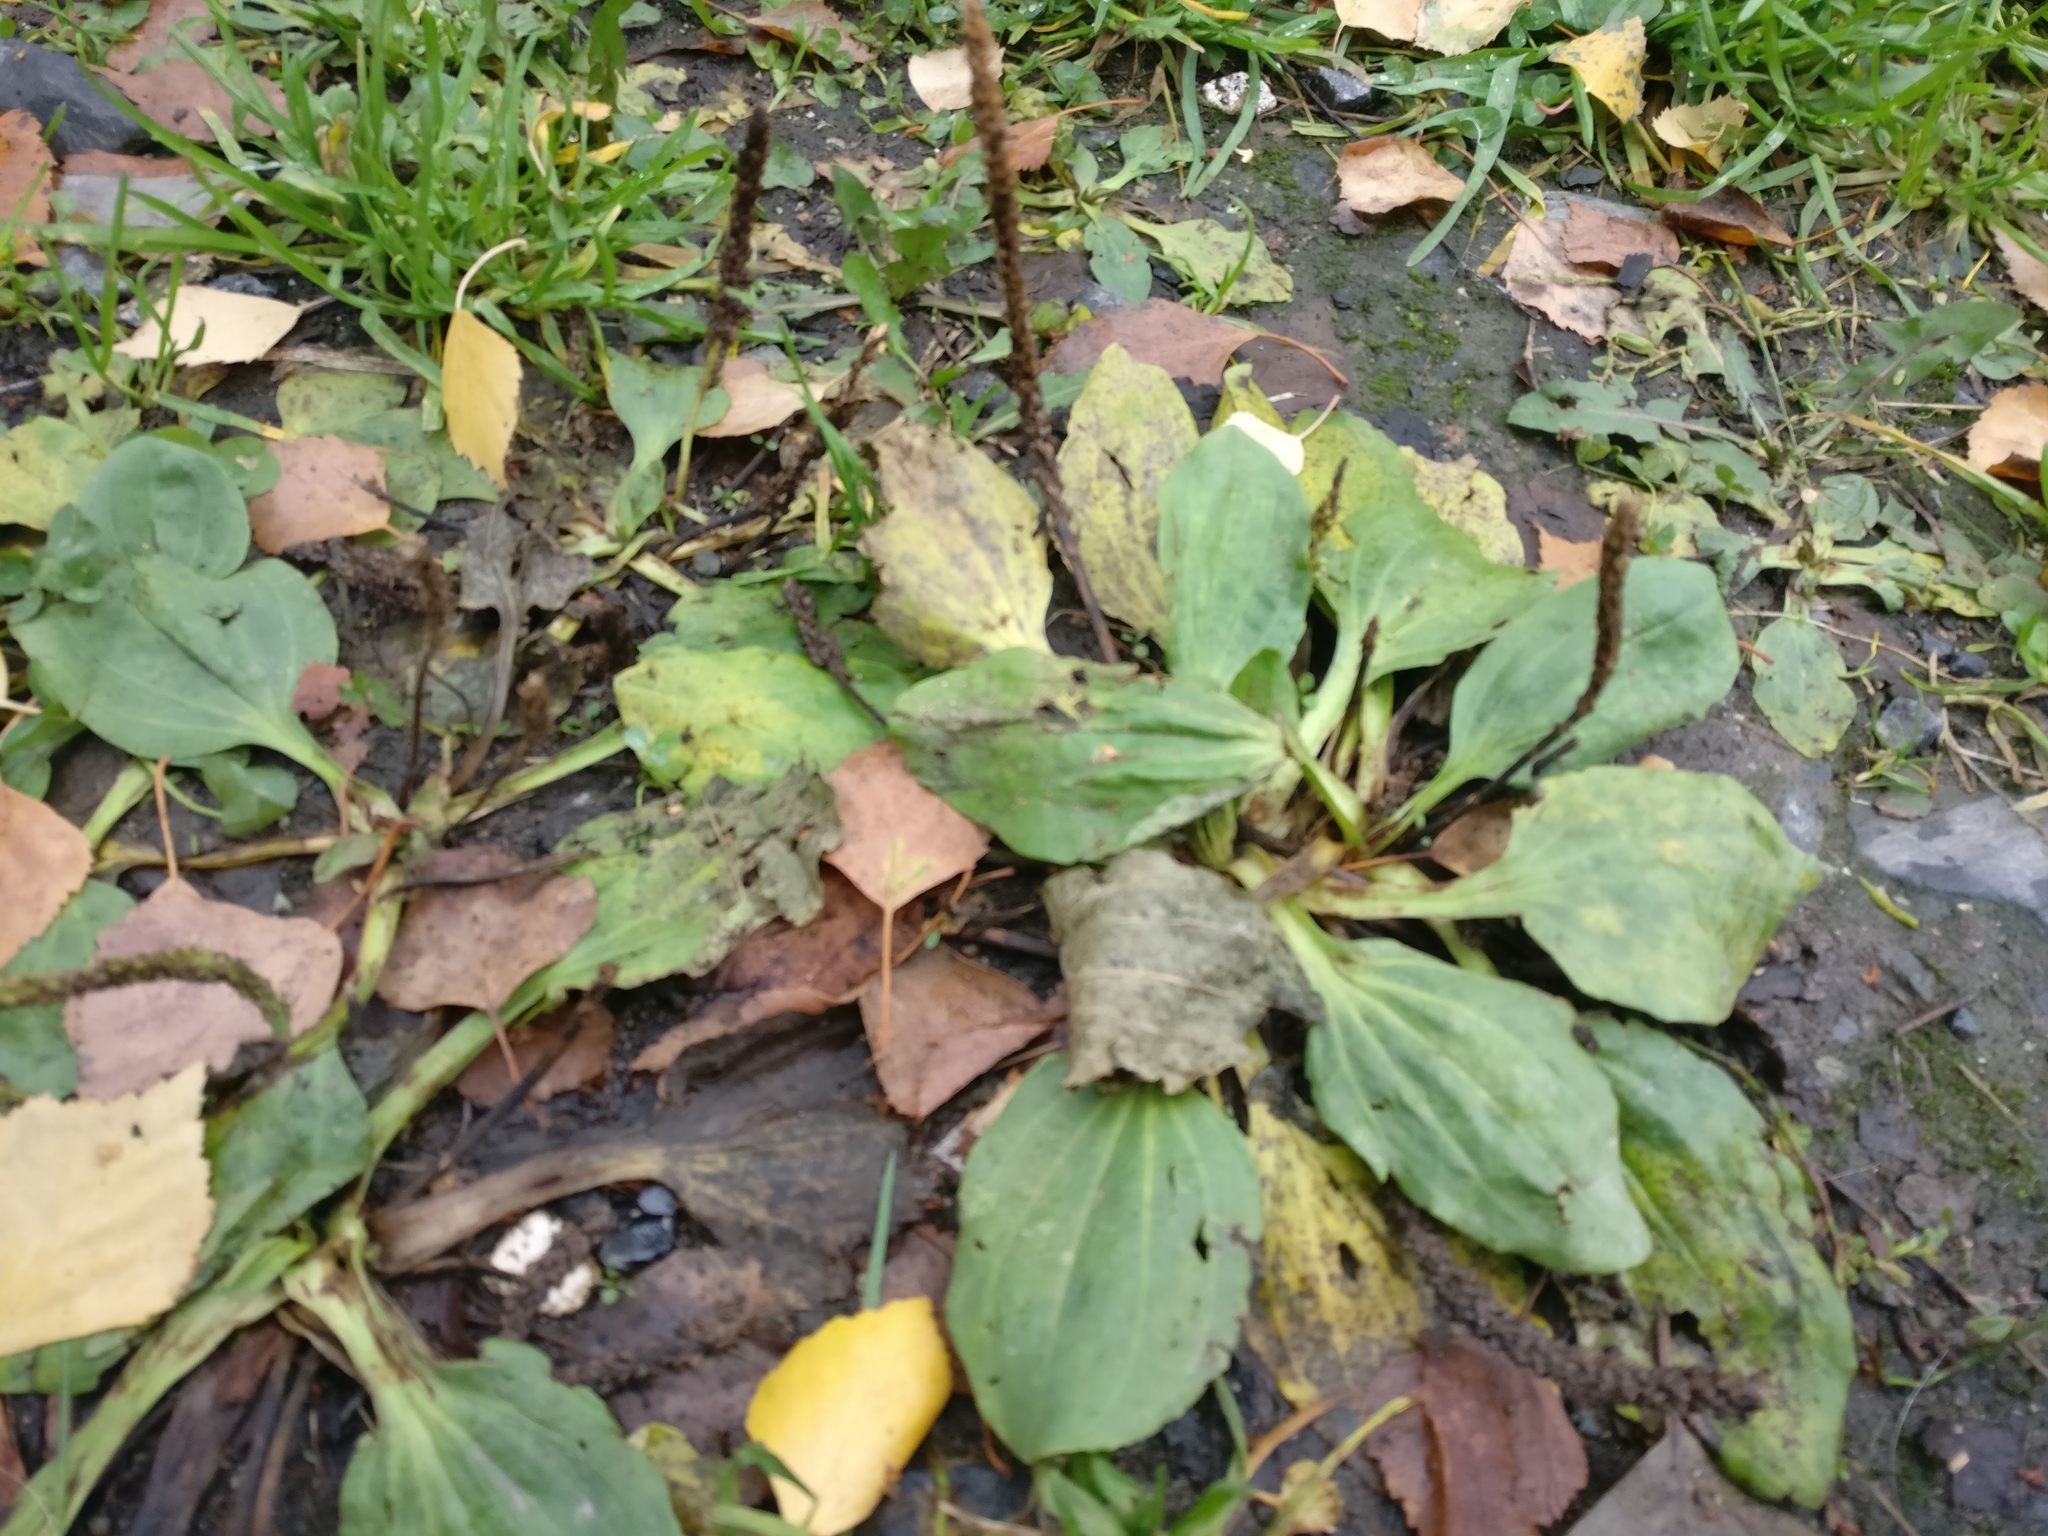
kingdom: Plantae
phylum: Tracheophyta
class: Magnoliopsida
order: Lamiales
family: Plantaginaceae
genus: Plantago
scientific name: Plantago major
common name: Common plantain
